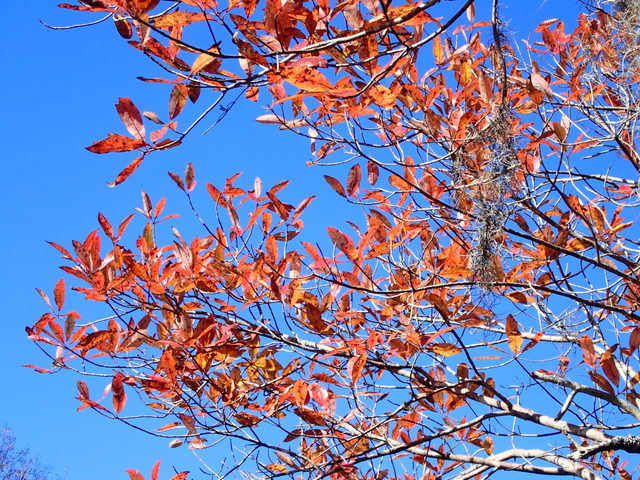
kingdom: Plantae
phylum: Tracheophyta
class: Magnoliopsida
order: Cornales
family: Nyssaceae
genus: Nyssa
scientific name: Nyssa ogeche
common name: Ogeechee tupelo
